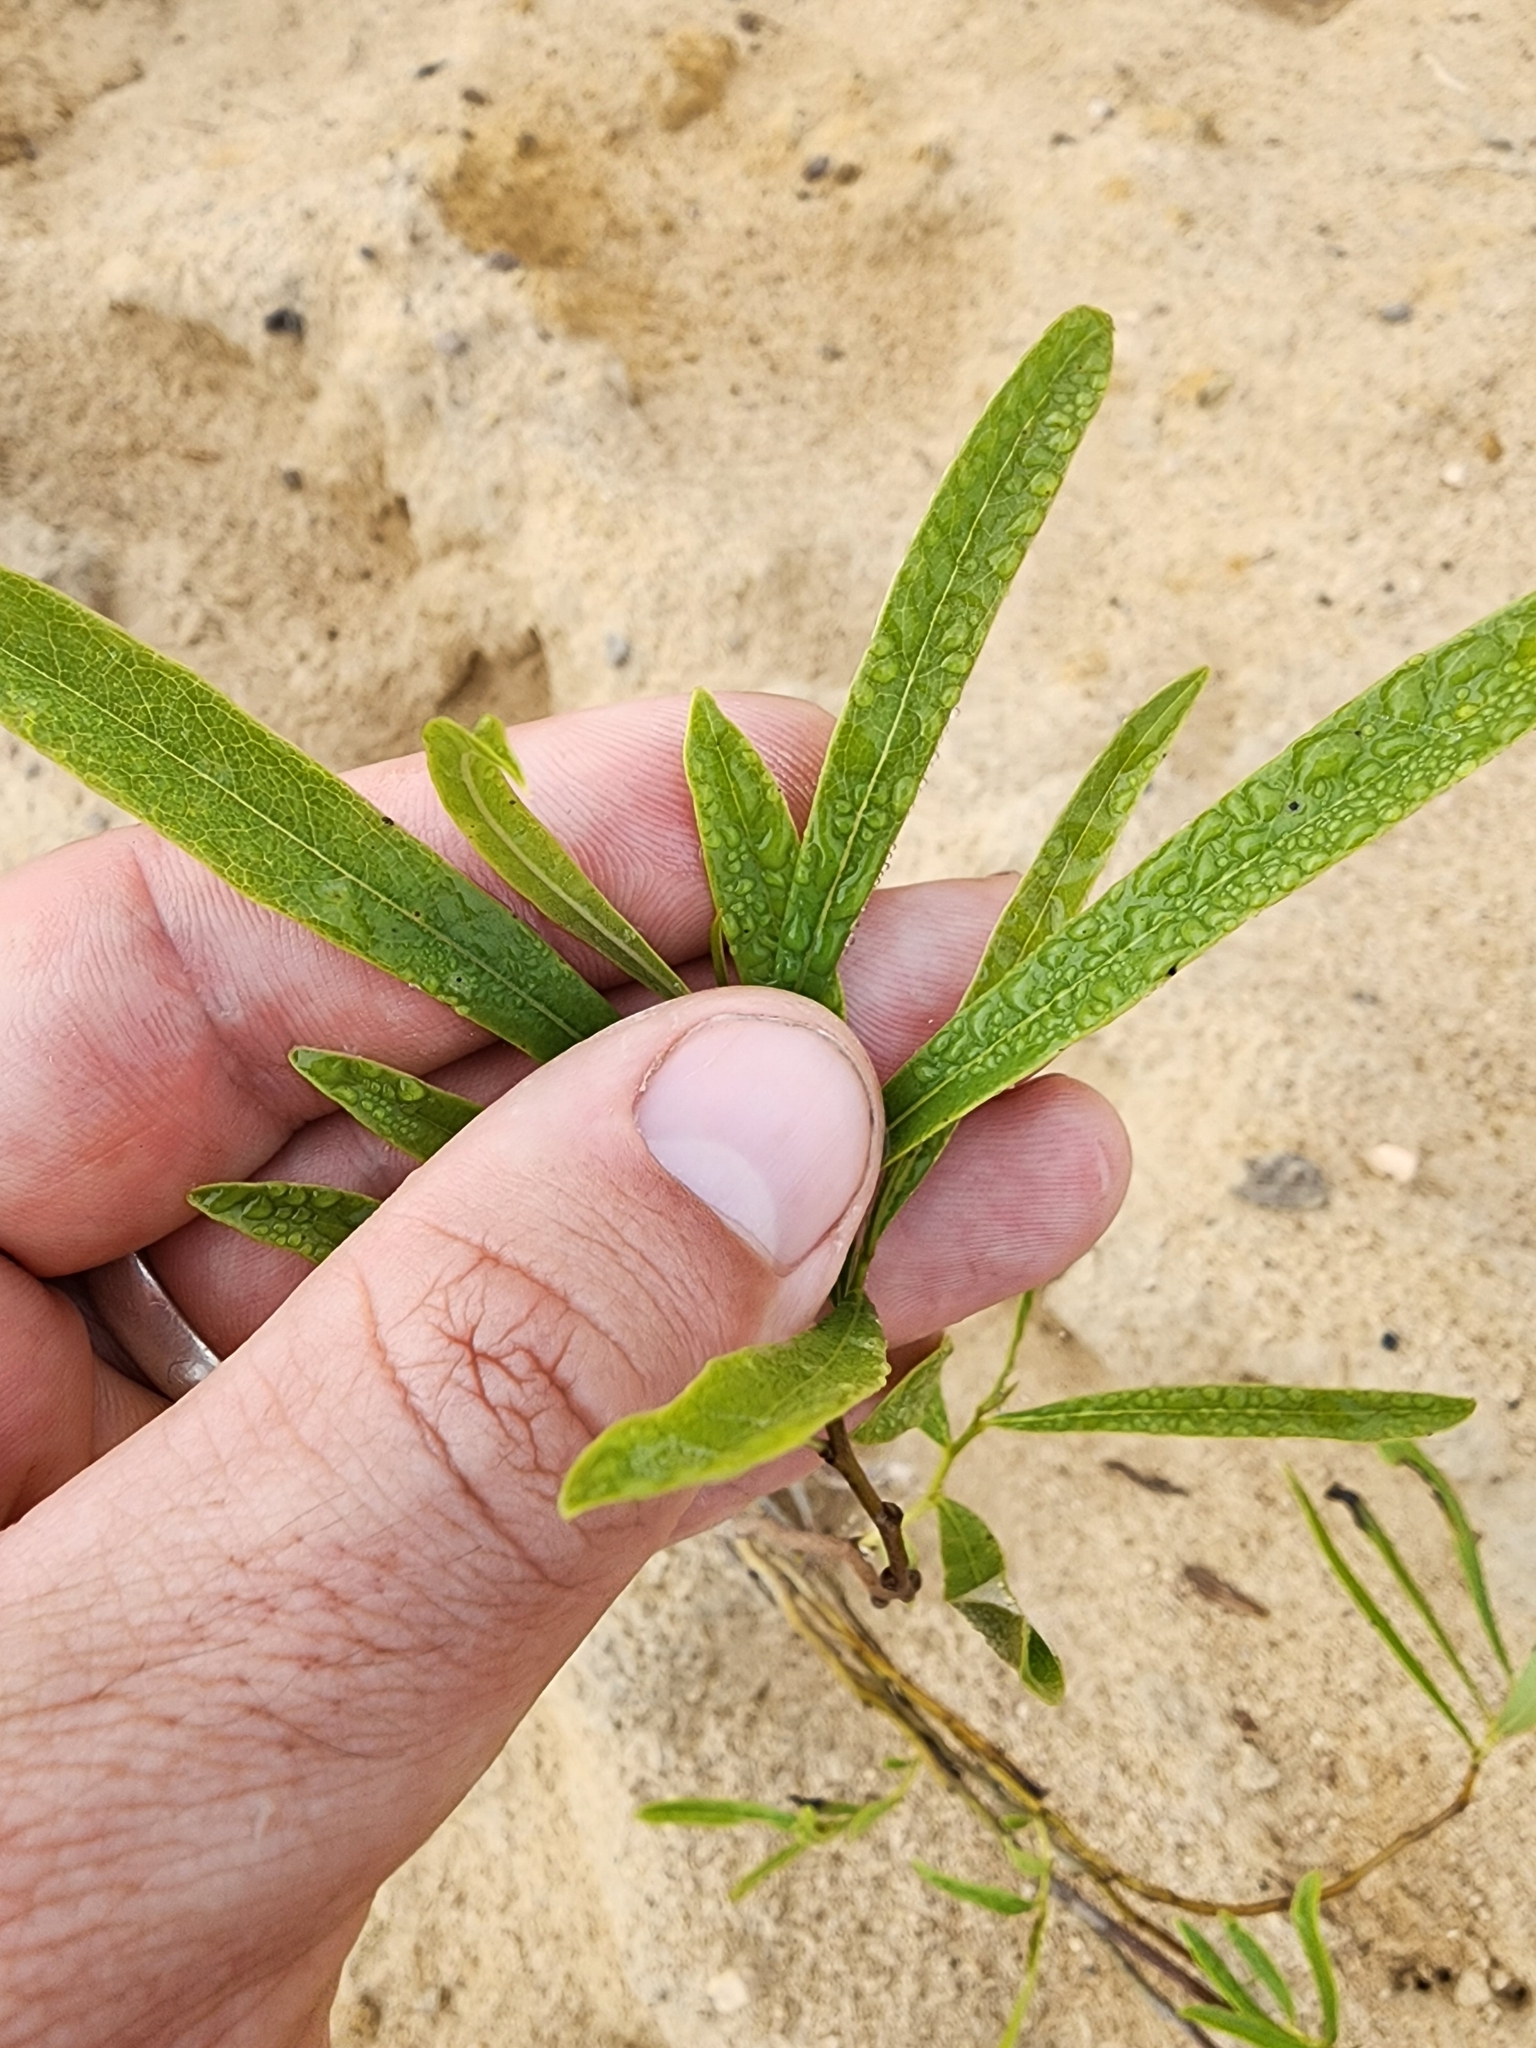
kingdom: Plantae
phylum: Tracheophyta
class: Magnoliopsida
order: Magnoliales
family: Annonaceae
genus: Asimina
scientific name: Asimina longifolia
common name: Polecatbush
